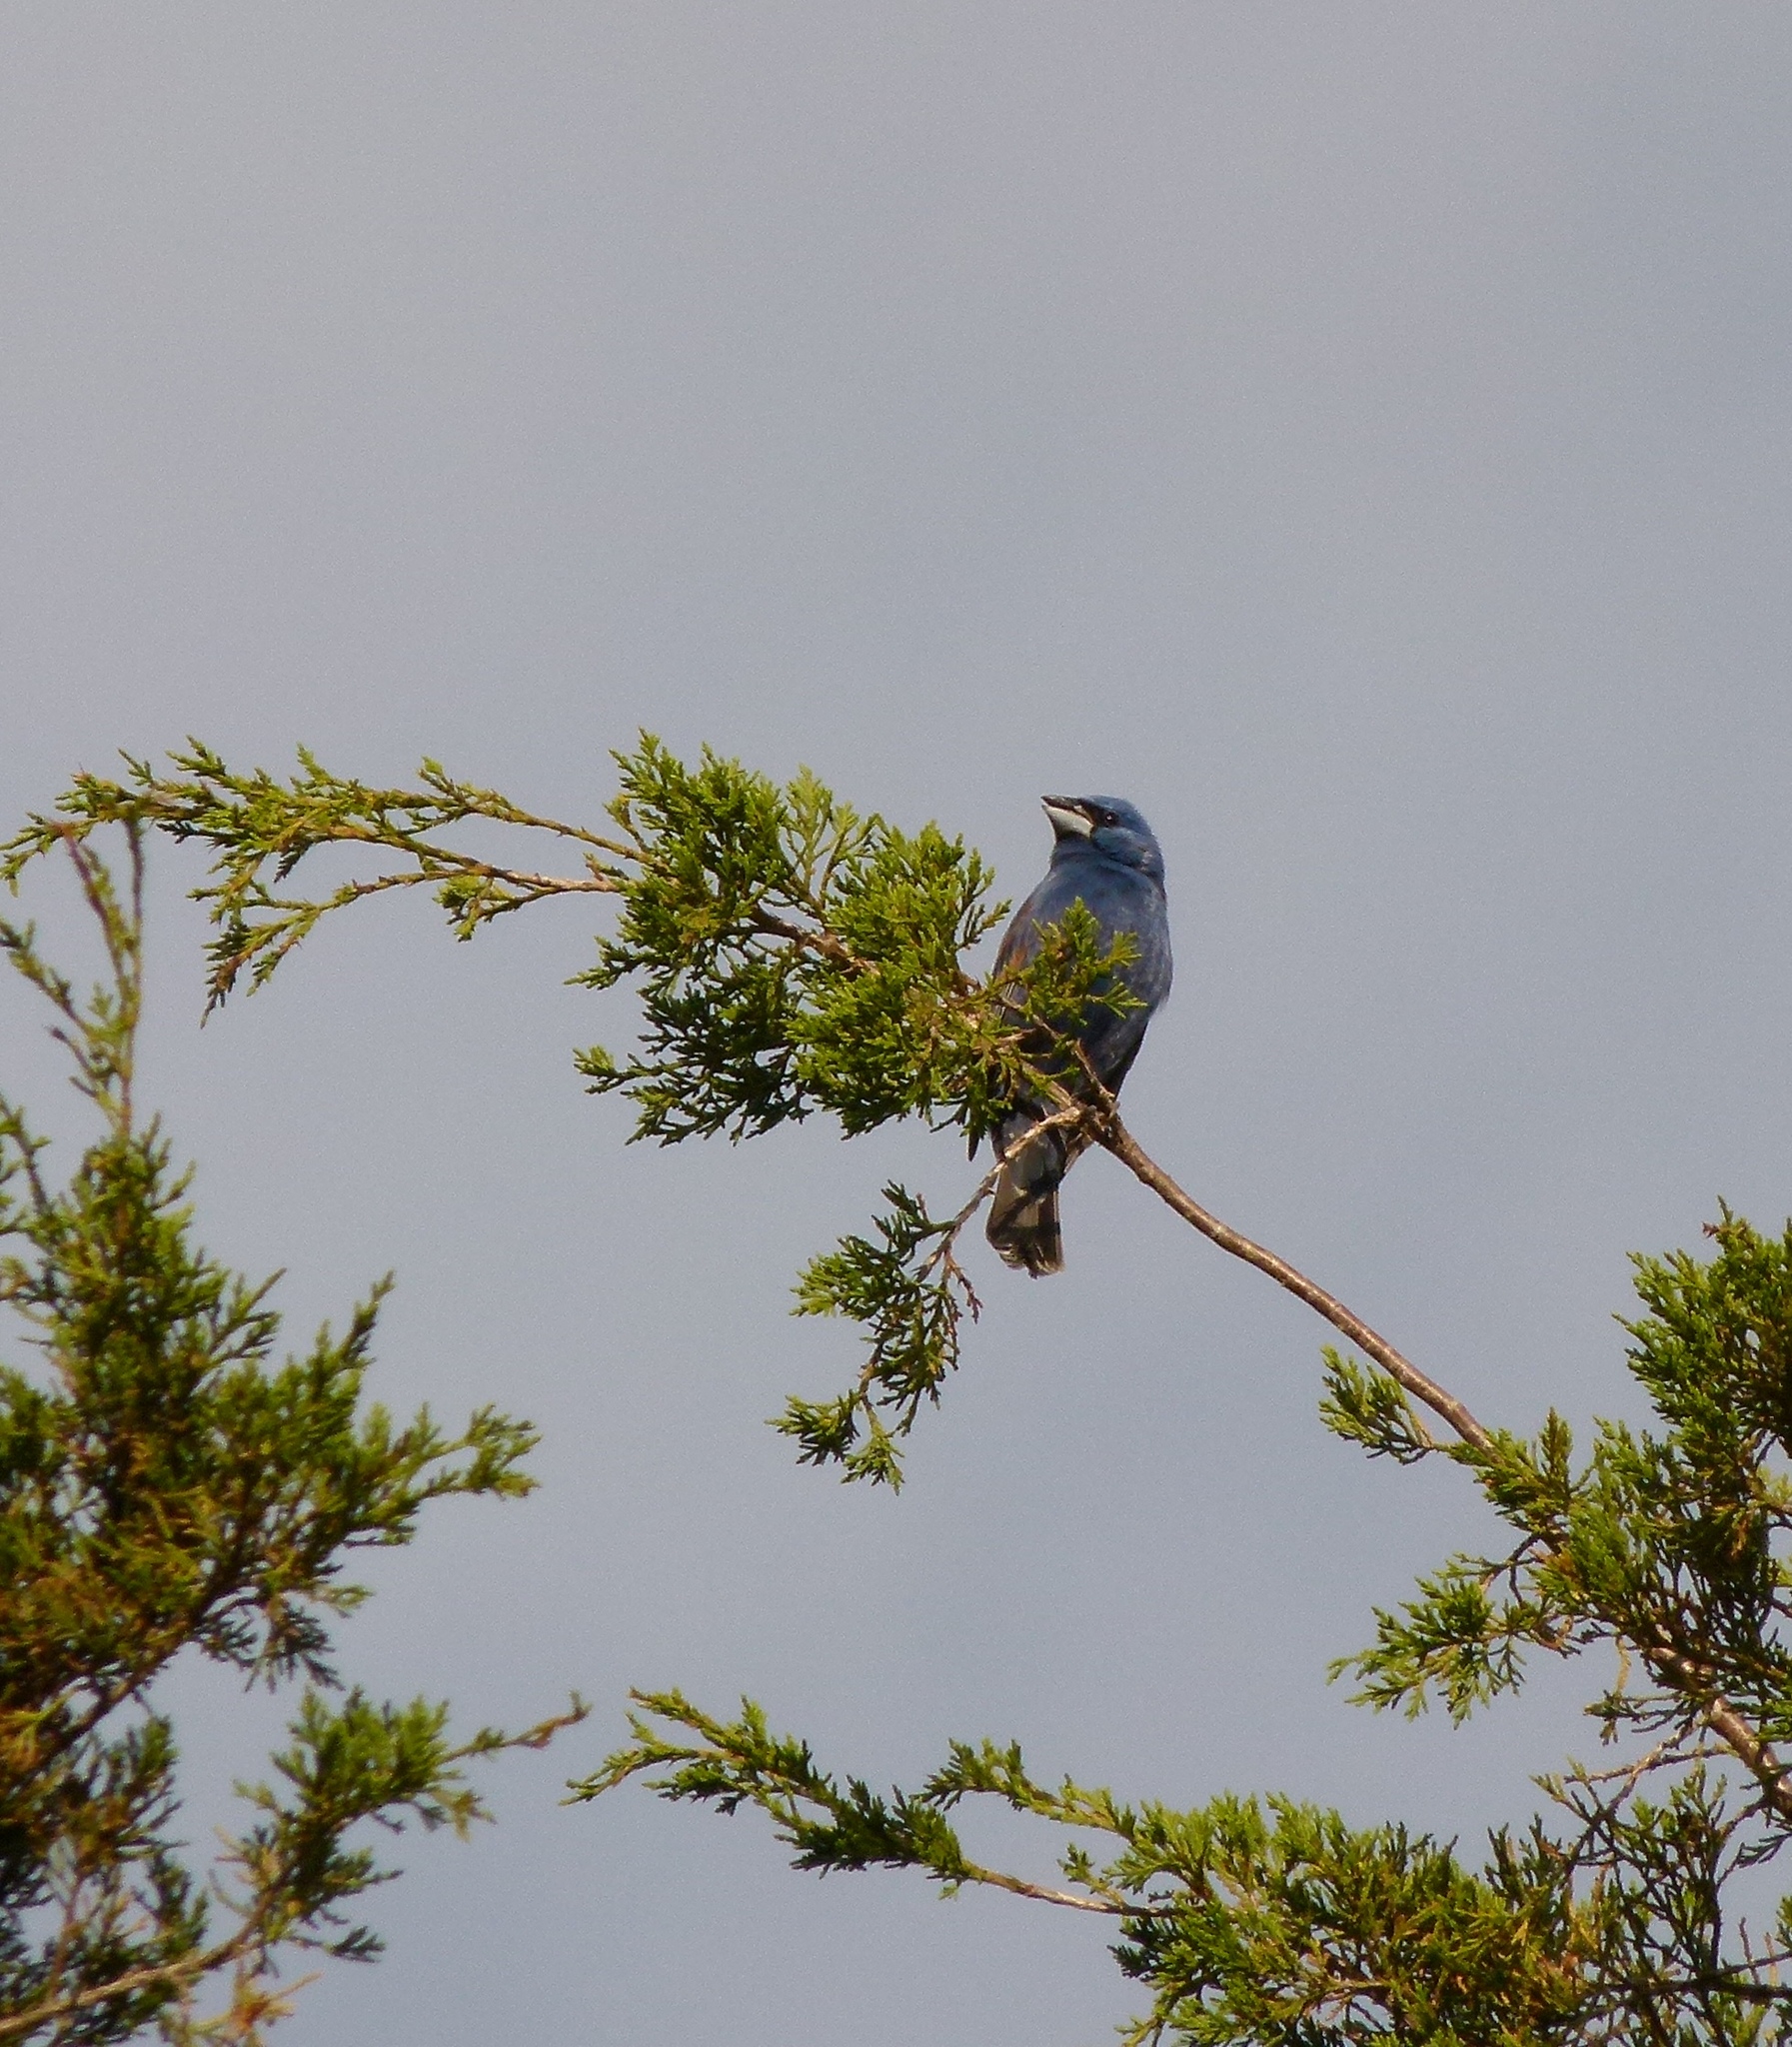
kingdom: Animalia
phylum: Chordata
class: Aves
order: Passeriformes
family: Cardinalidae
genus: Passerina
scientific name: Passerina caerulea
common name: Blue grosbeak
